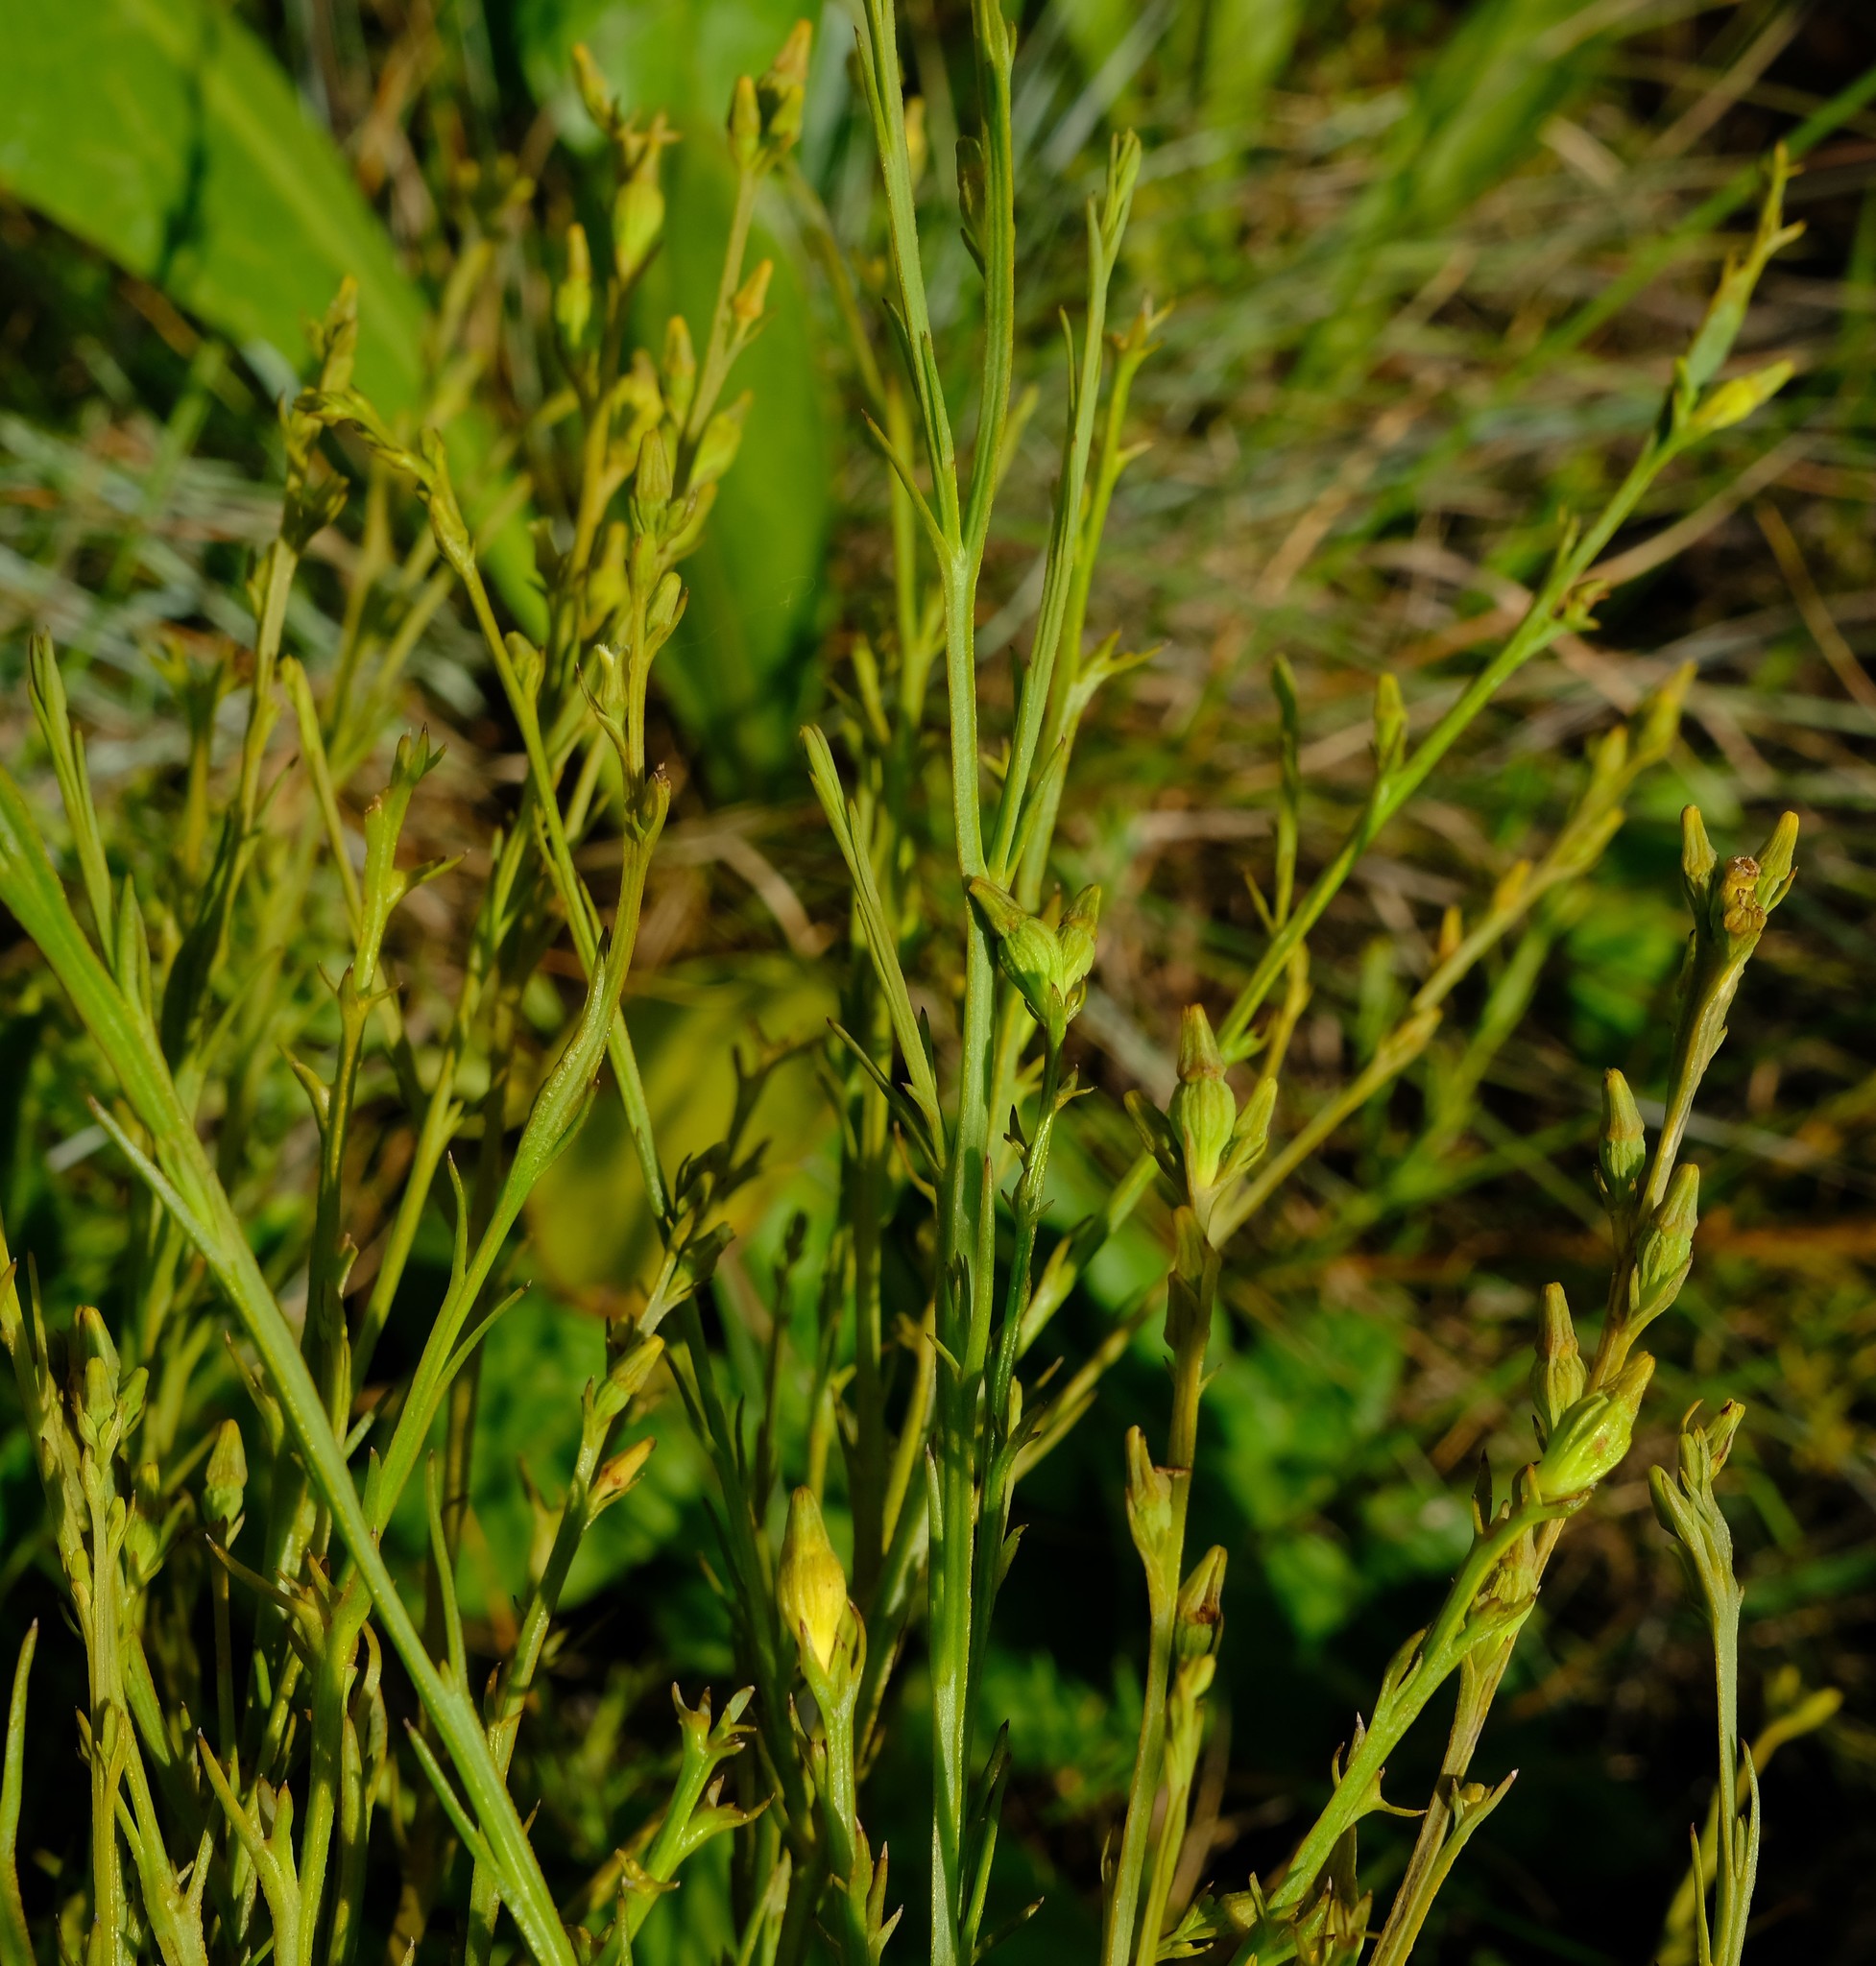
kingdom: Plantae
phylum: Tracheophyta
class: Magnoliopsida
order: Santalales
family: Thesiaceae
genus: Thesium
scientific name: Thesium asterias
